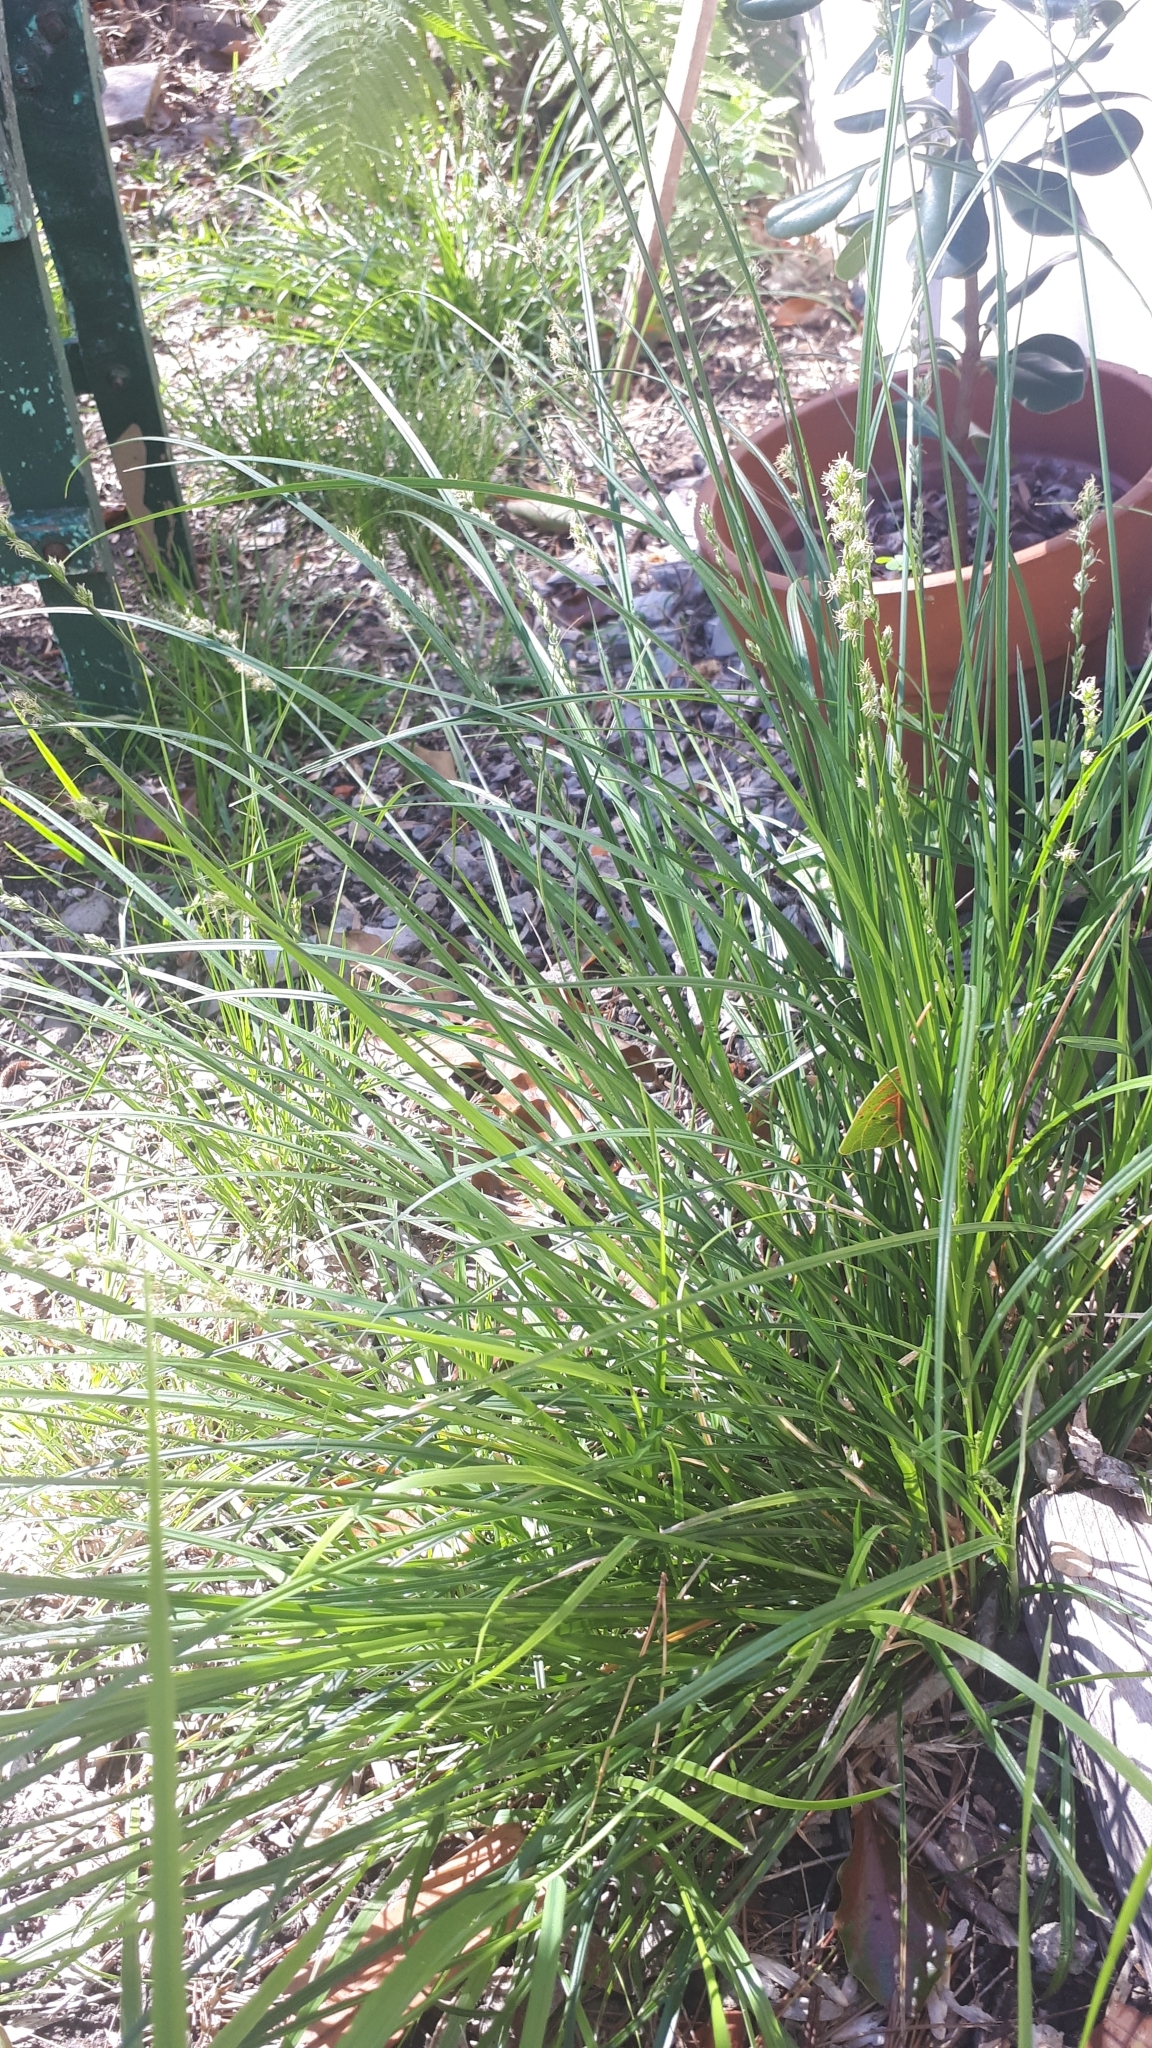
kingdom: Plantae
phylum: Tracheophyta
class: Liliopsida
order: Poales
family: Cyperaceae
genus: Carex
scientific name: Carex divulsa
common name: Grassland sedge
